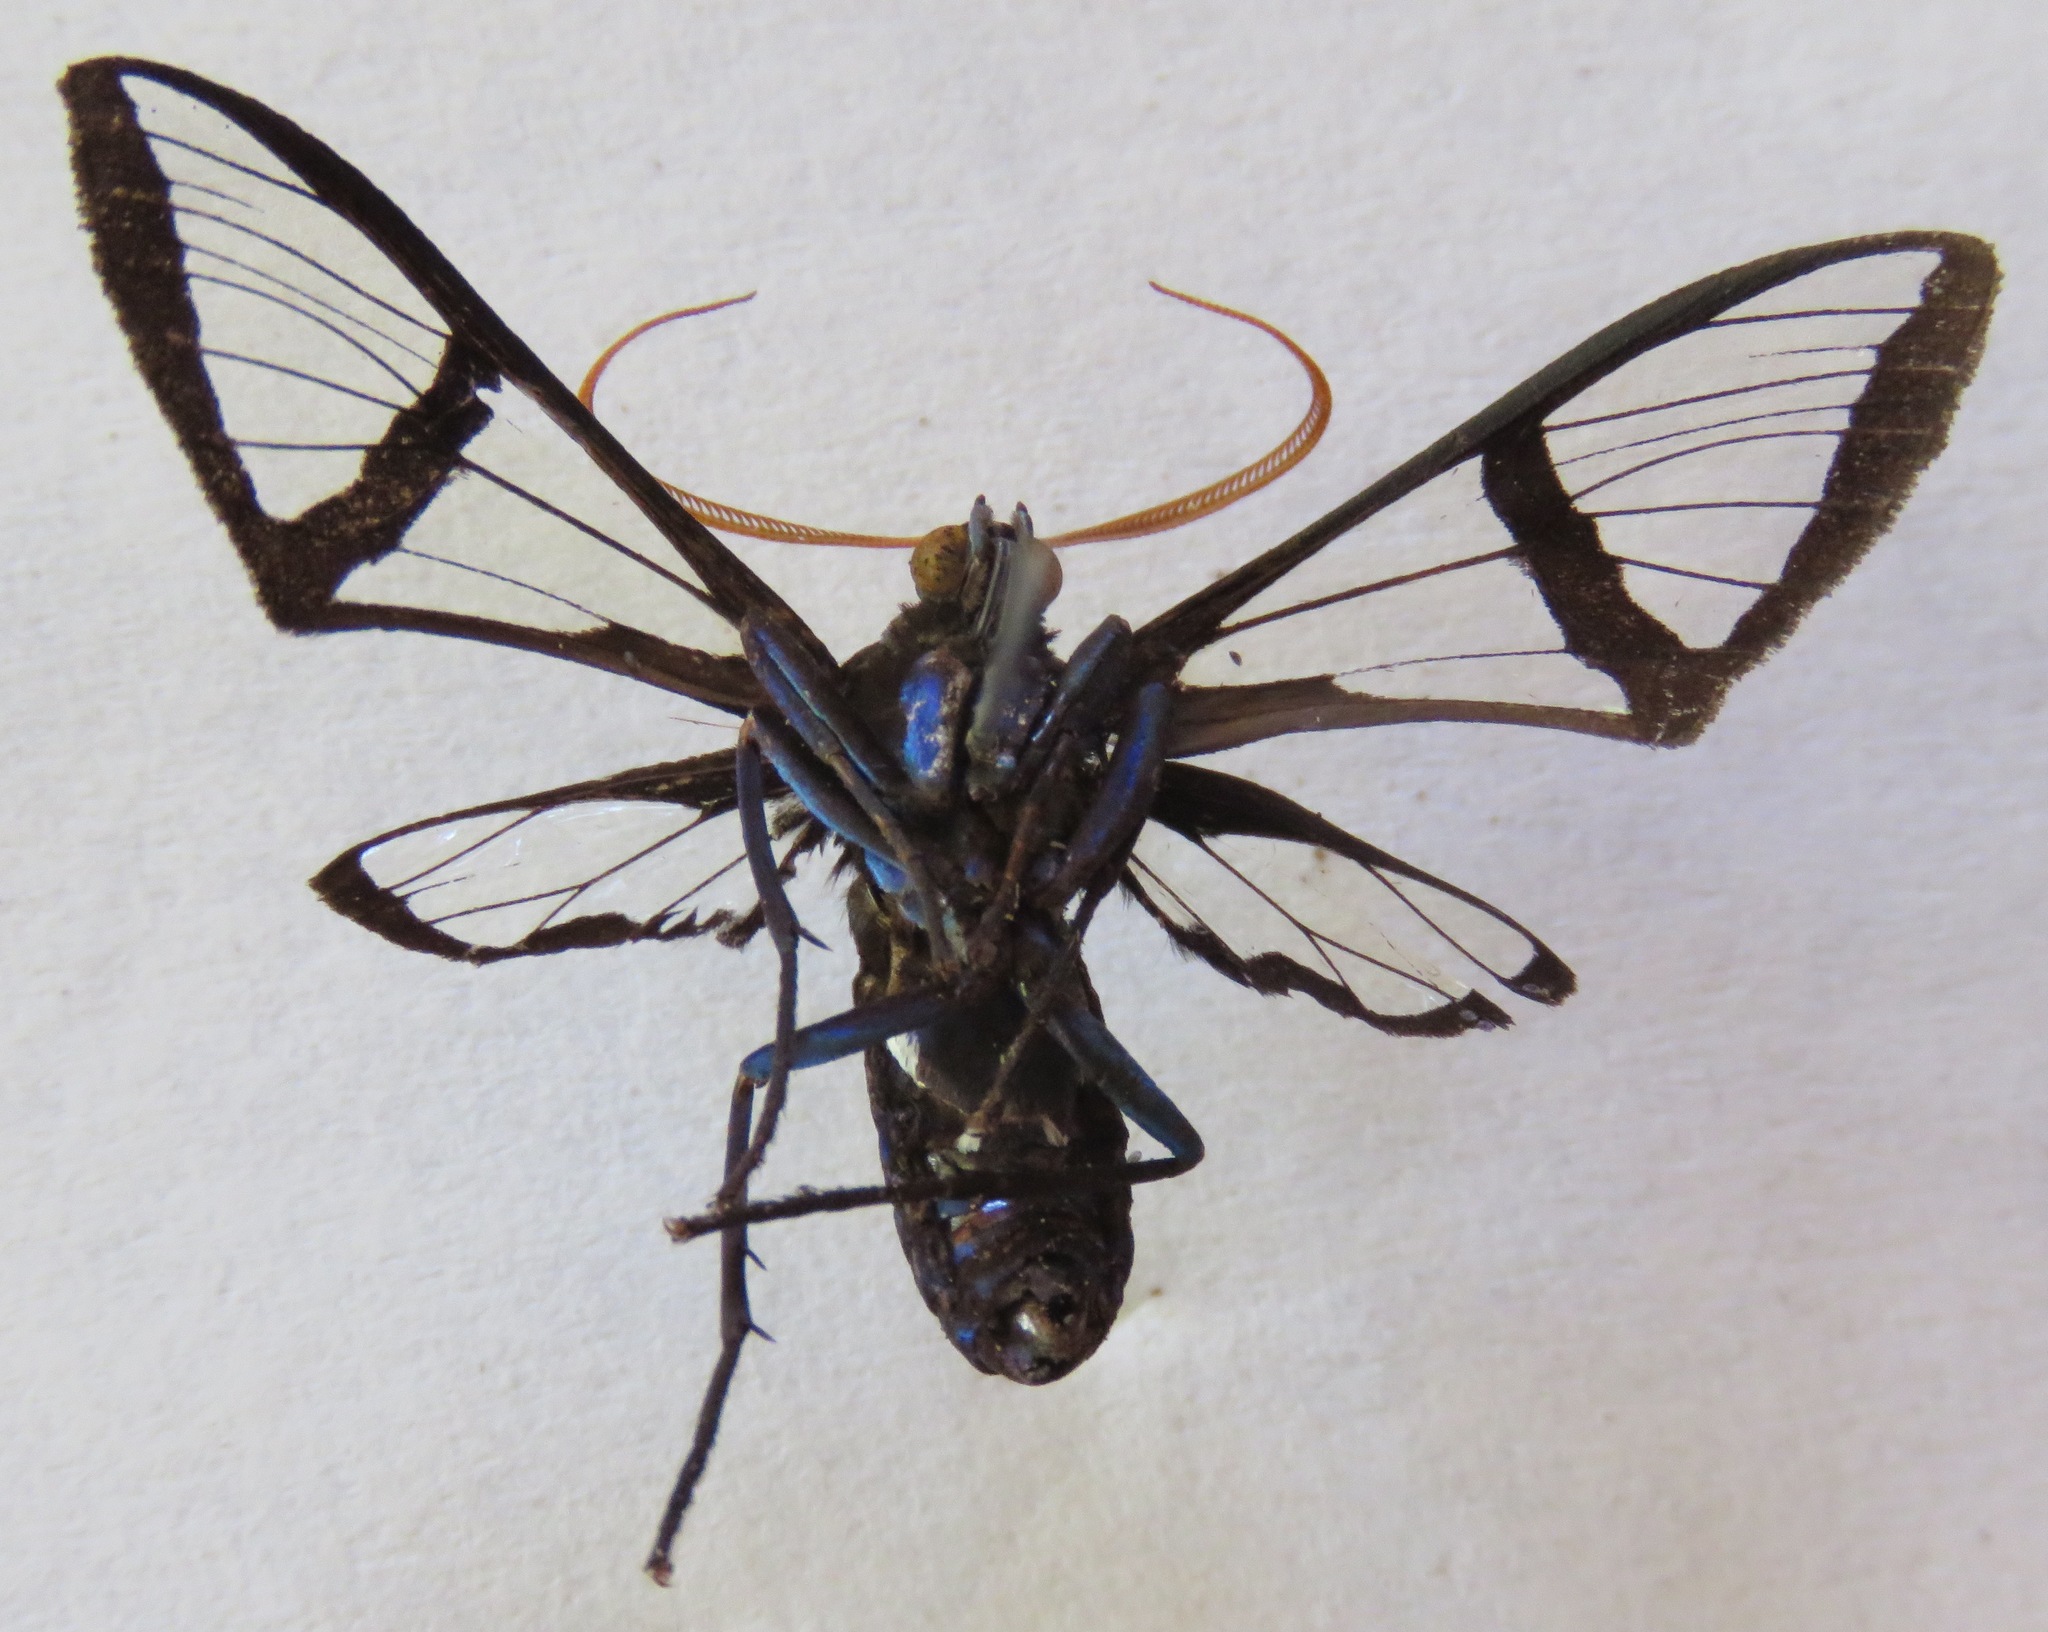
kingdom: Animalia
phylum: Arthropoda
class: Insecta
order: Lepidoptera
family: Erebidae
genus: Nyridela
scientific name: Nyridela xanthocera
